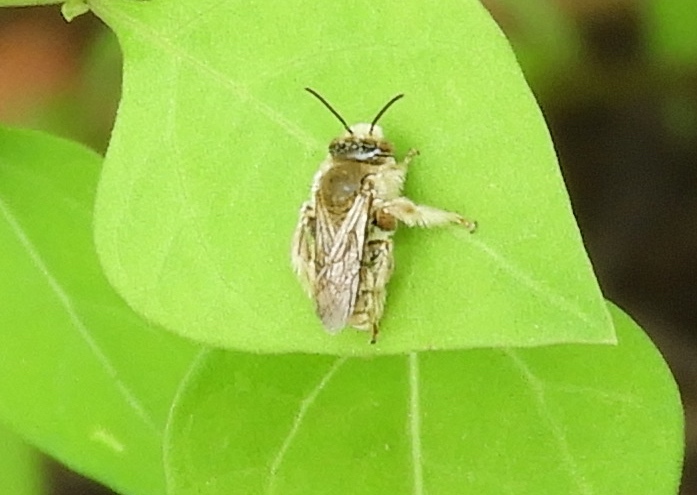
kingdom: Animalia
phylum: Arthropoda
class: Insecta
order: Hymenoptera
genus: Dasiapis
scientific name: Dasiapis
